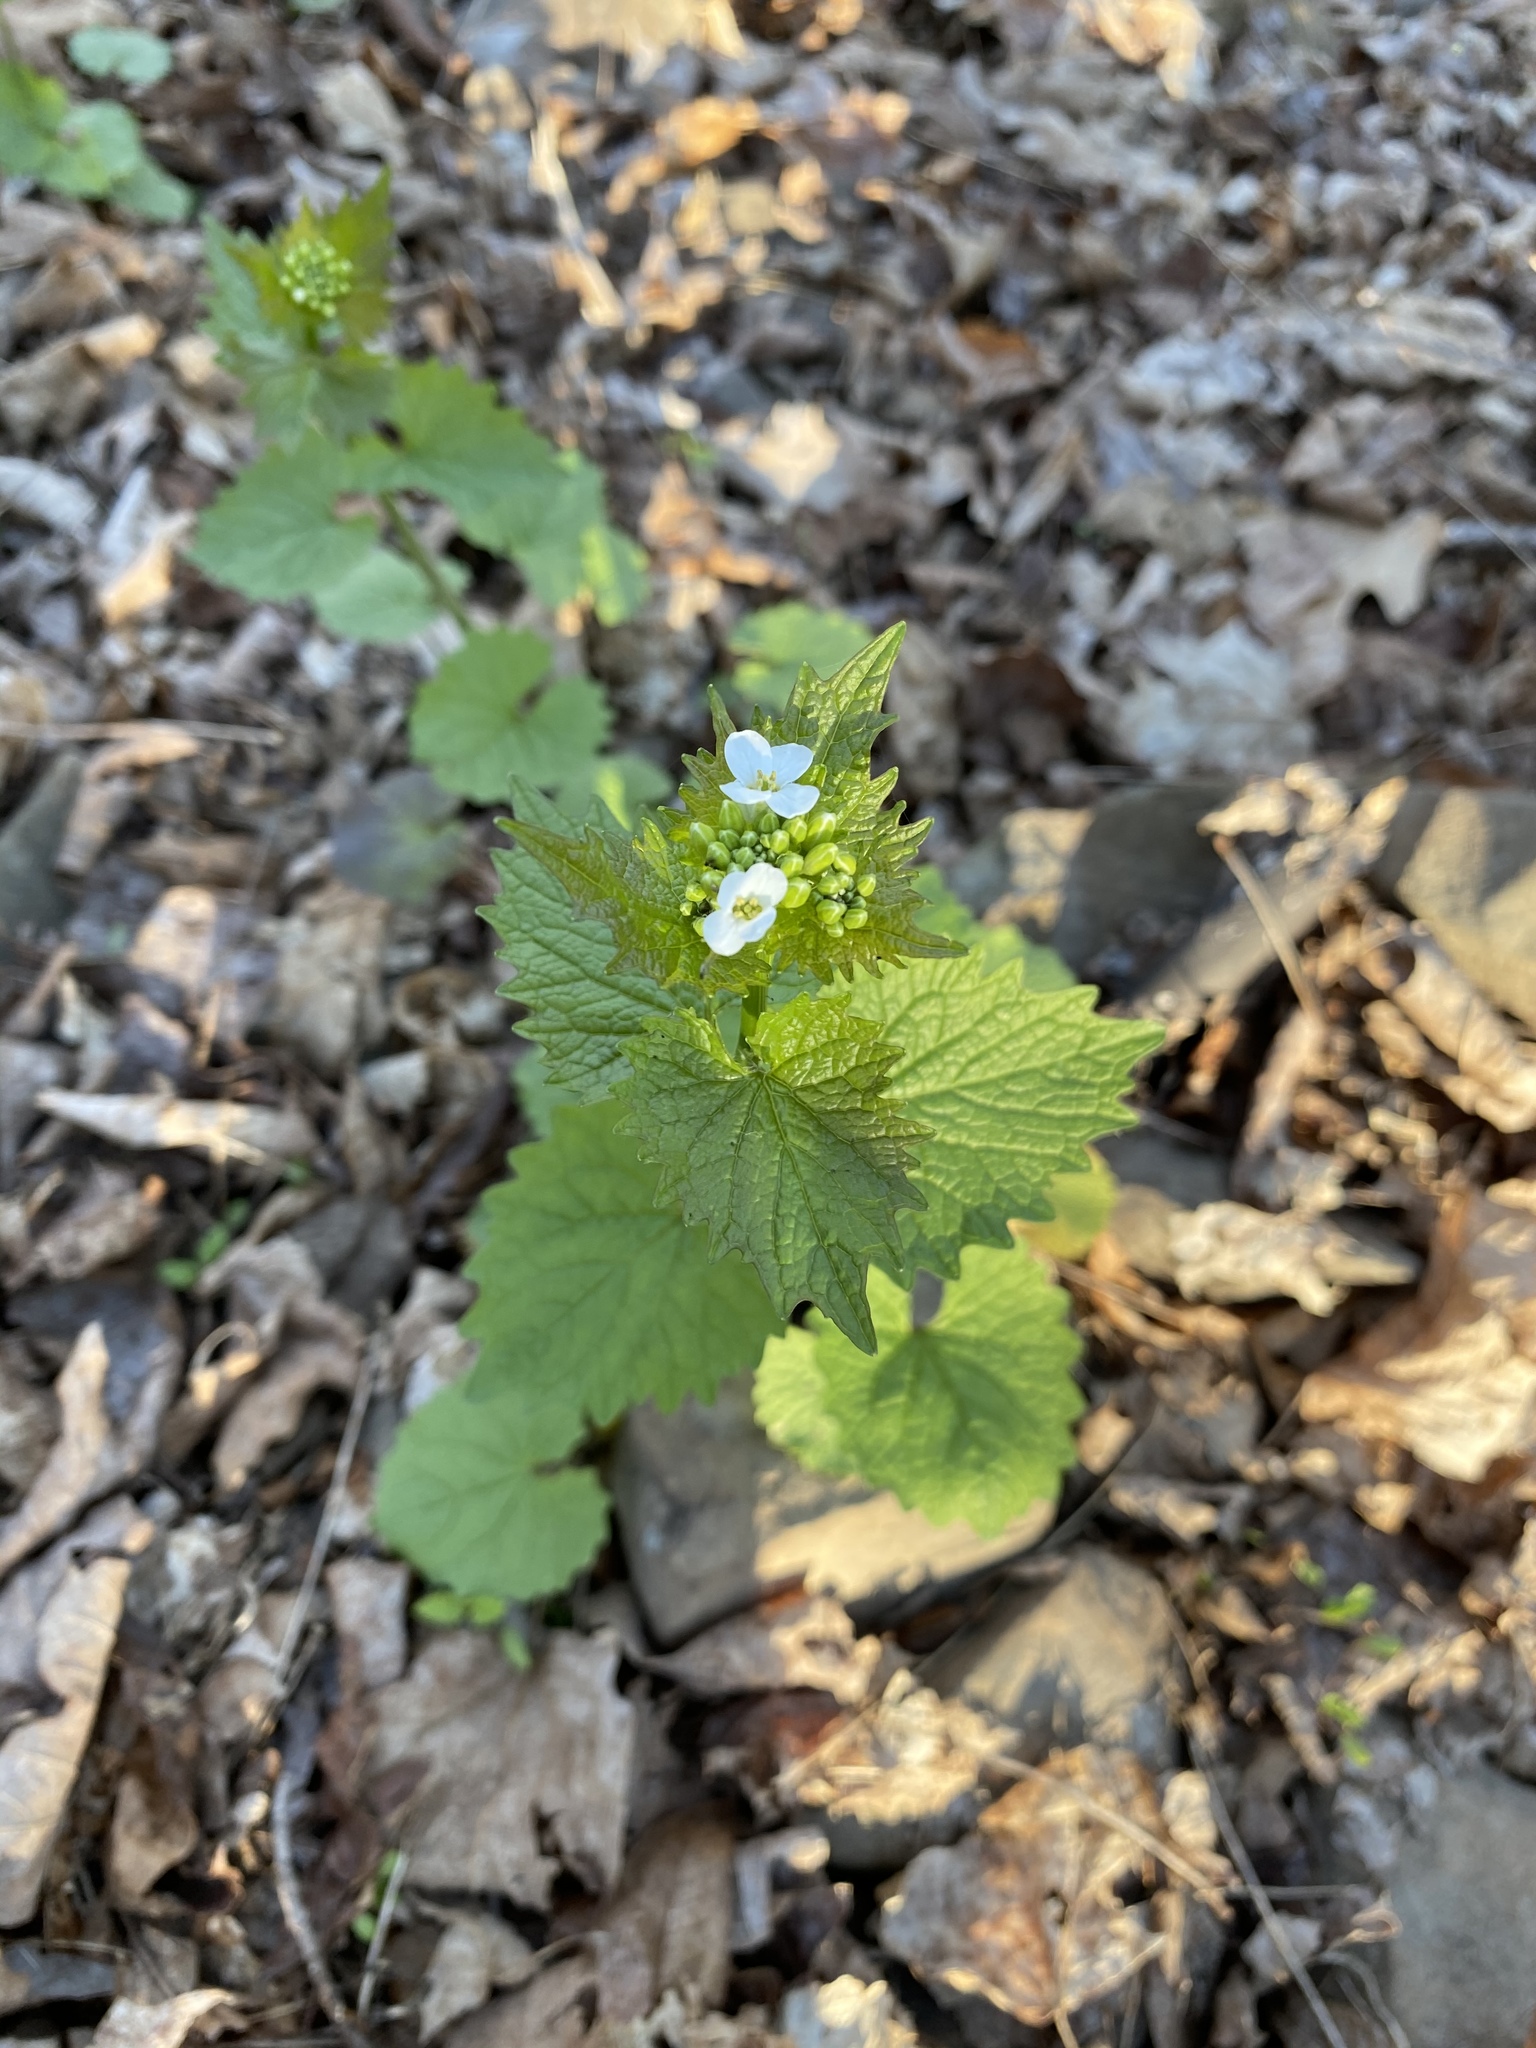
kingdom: Plantae
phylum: Tracheophyta
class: Magnoliopsida
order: Brassicales
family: Brassicaceae
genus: Alliaria
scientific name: Alliaria petiolata
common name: Garlic mustard
